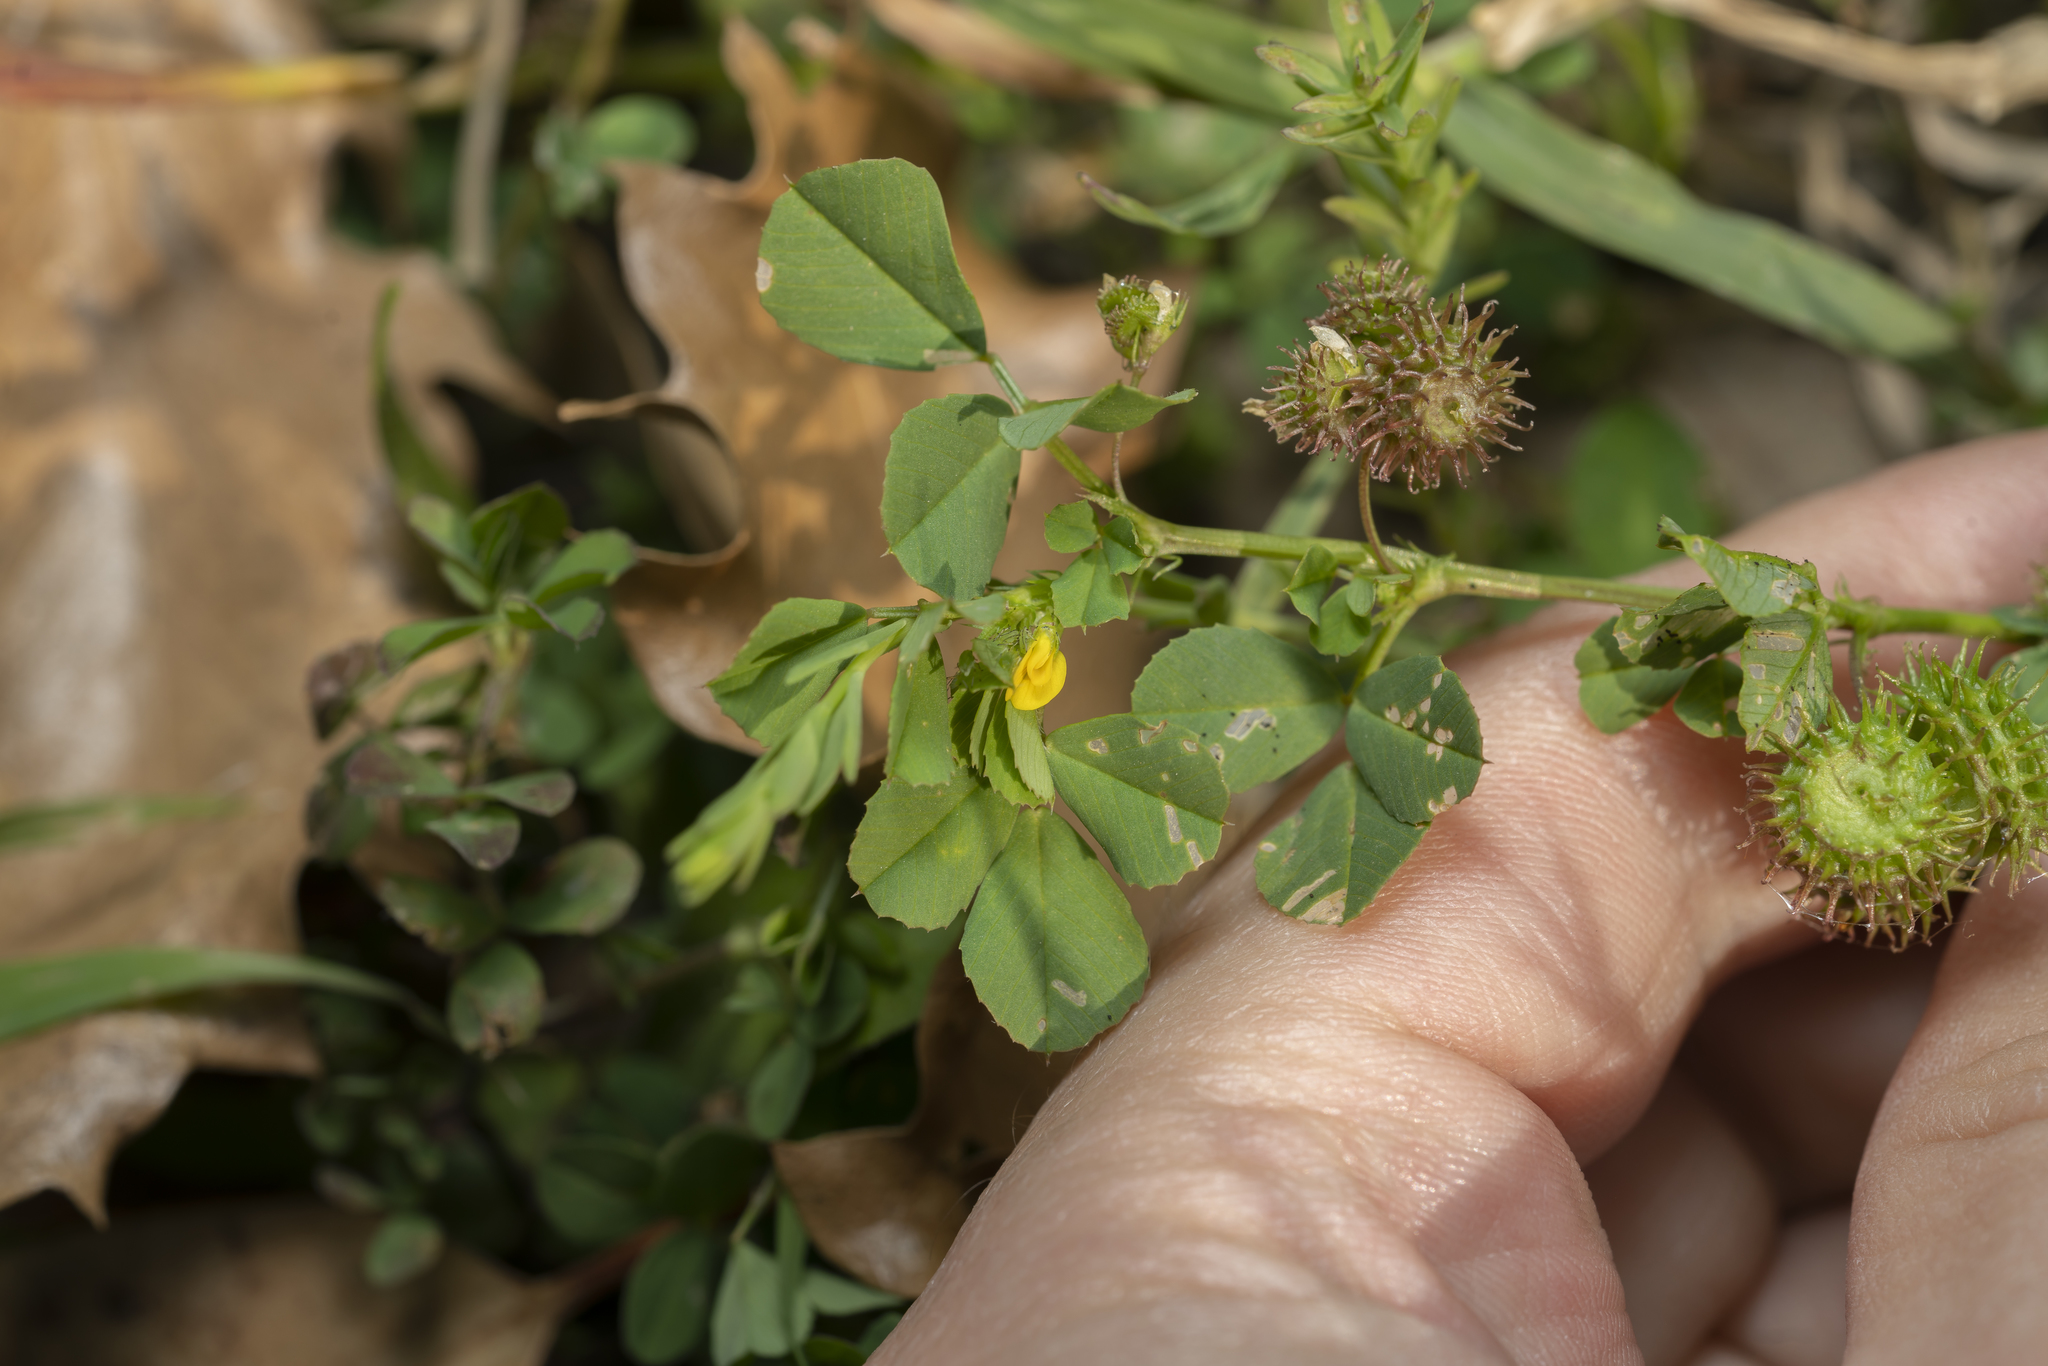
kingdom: Plantae
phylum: Tracheophyta
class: Magnoliopsida
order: Fabales
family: Fabaceae
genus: Medicago
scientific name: Medicago polymorpha
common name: Burclover
